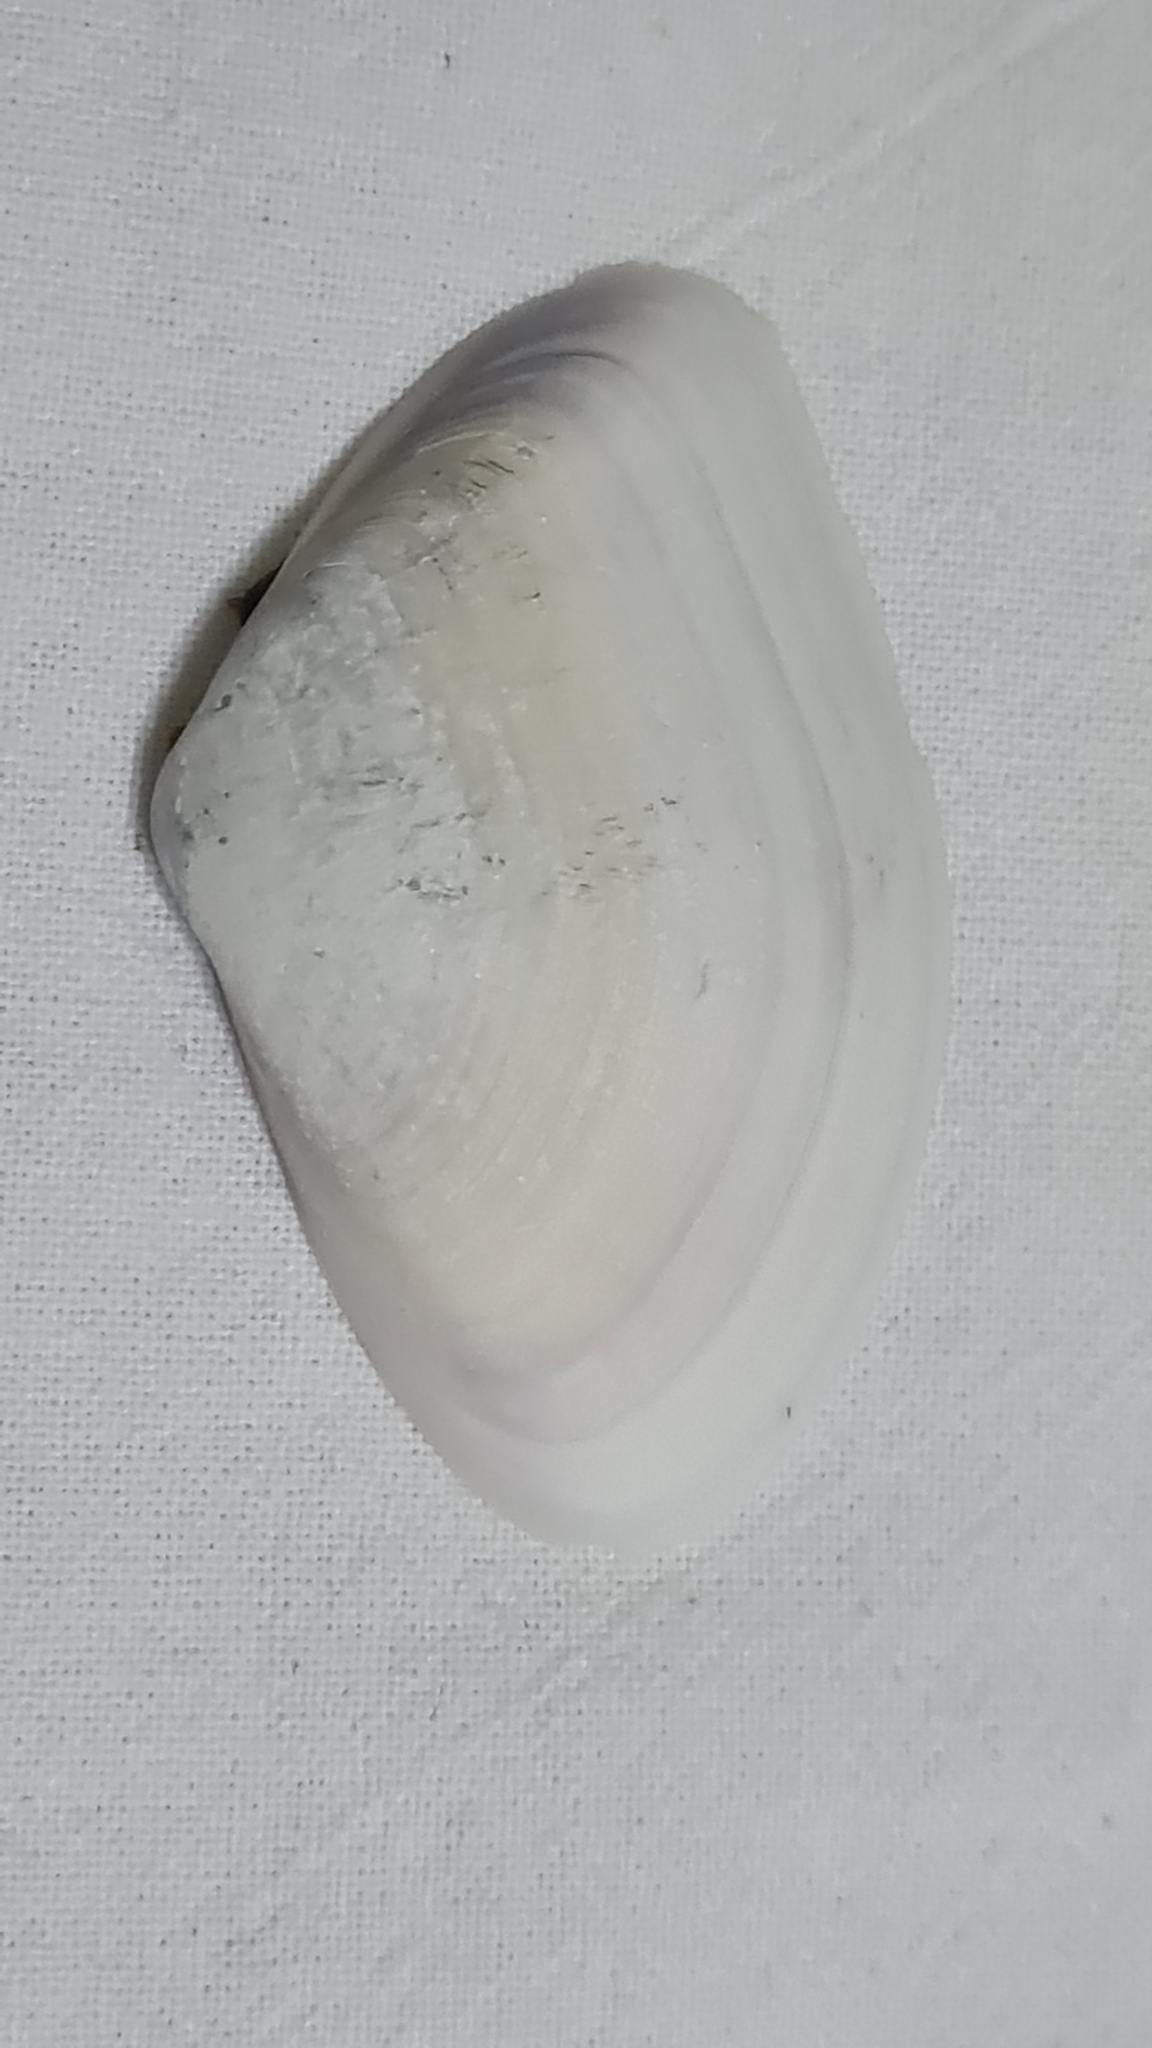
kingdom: Animalia
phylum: Mollusca
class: Bivalvia
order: Cardiida
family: Donacidae
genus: Iphigenia
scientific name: Iphigenia brasiliensis
